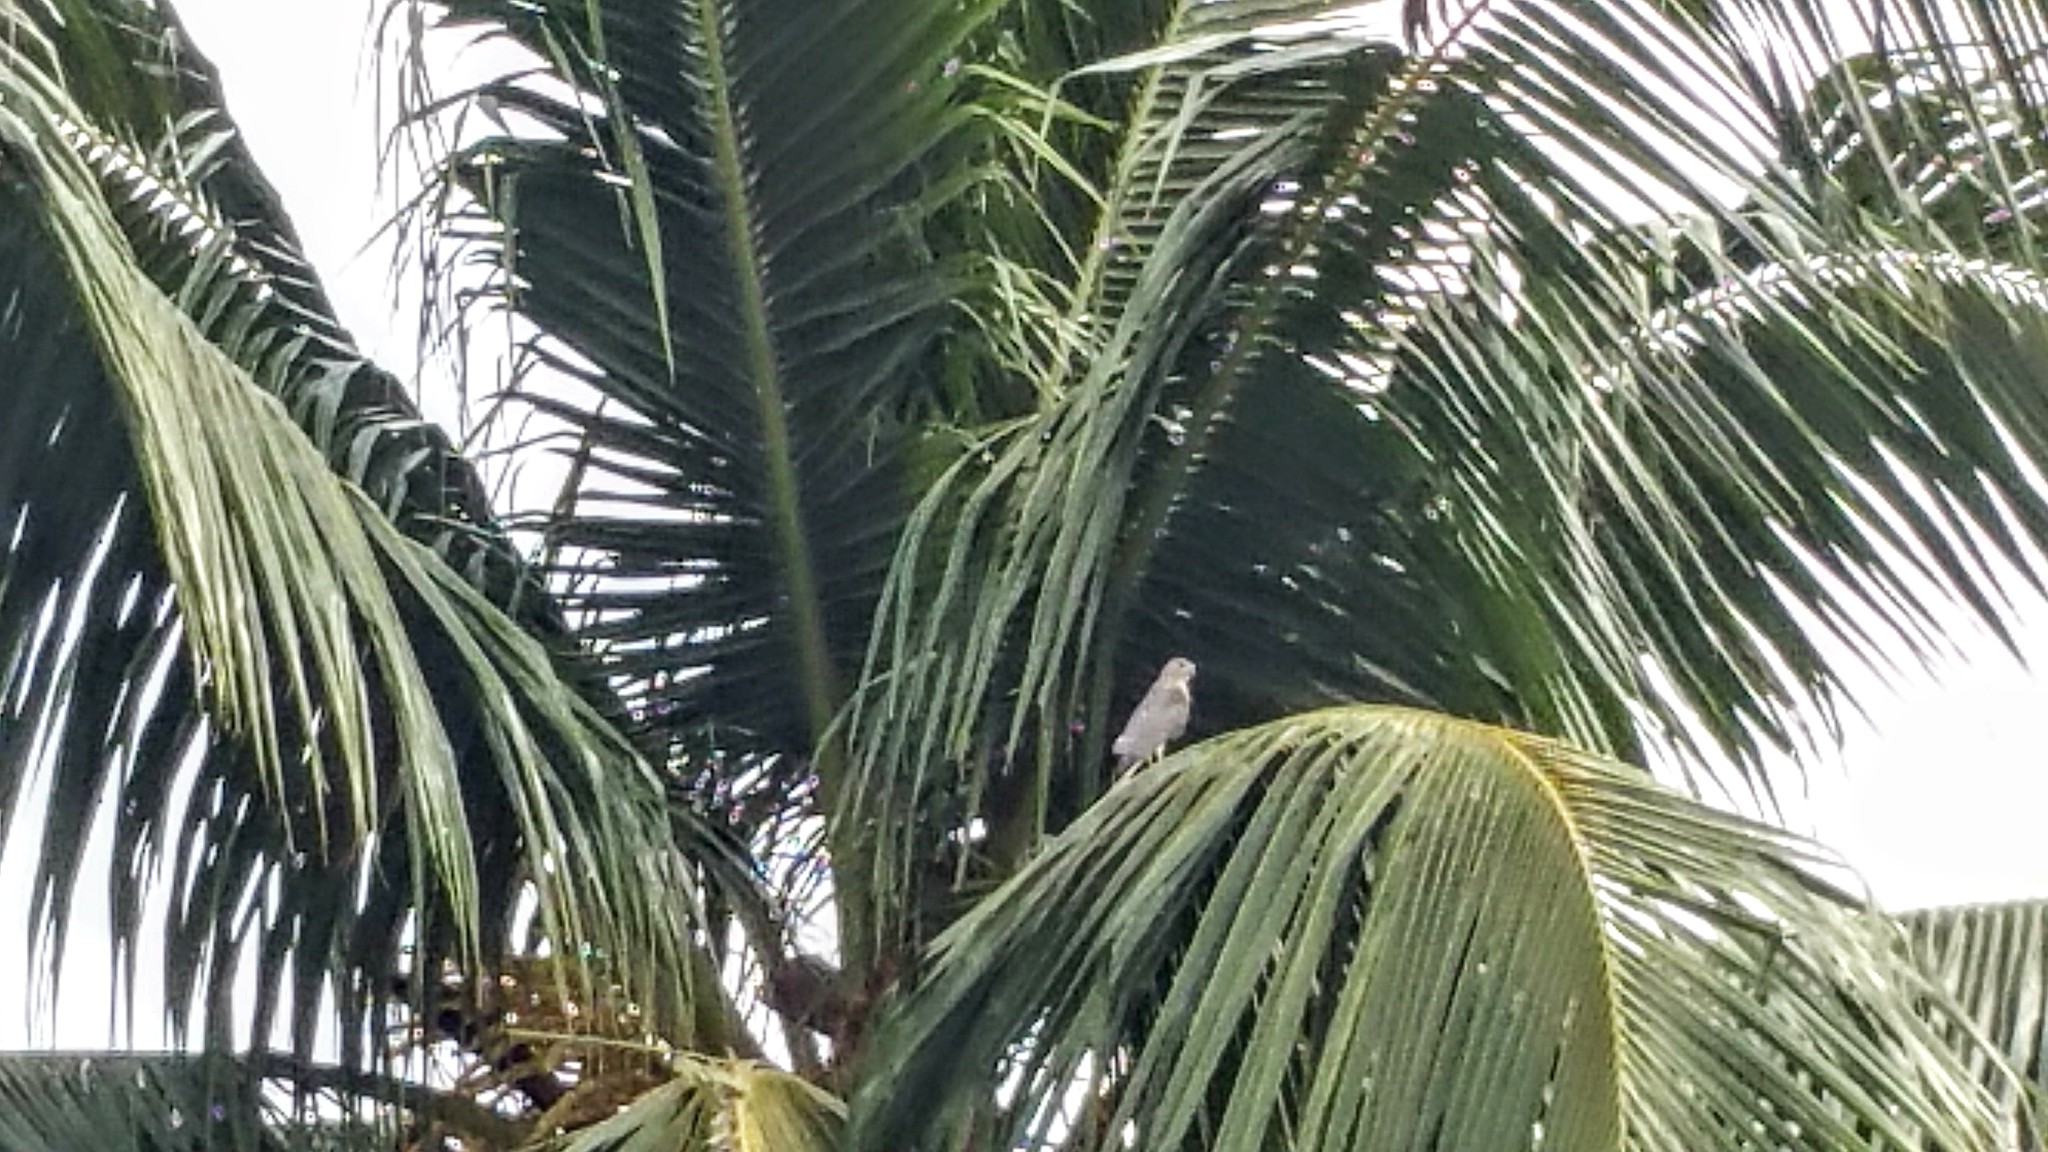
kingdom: Animalia
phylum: Chordata
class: Aves
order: Accipitriformes
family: Accipitridae
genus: Accipiter
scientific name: Accipiter badius
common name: Shikra
